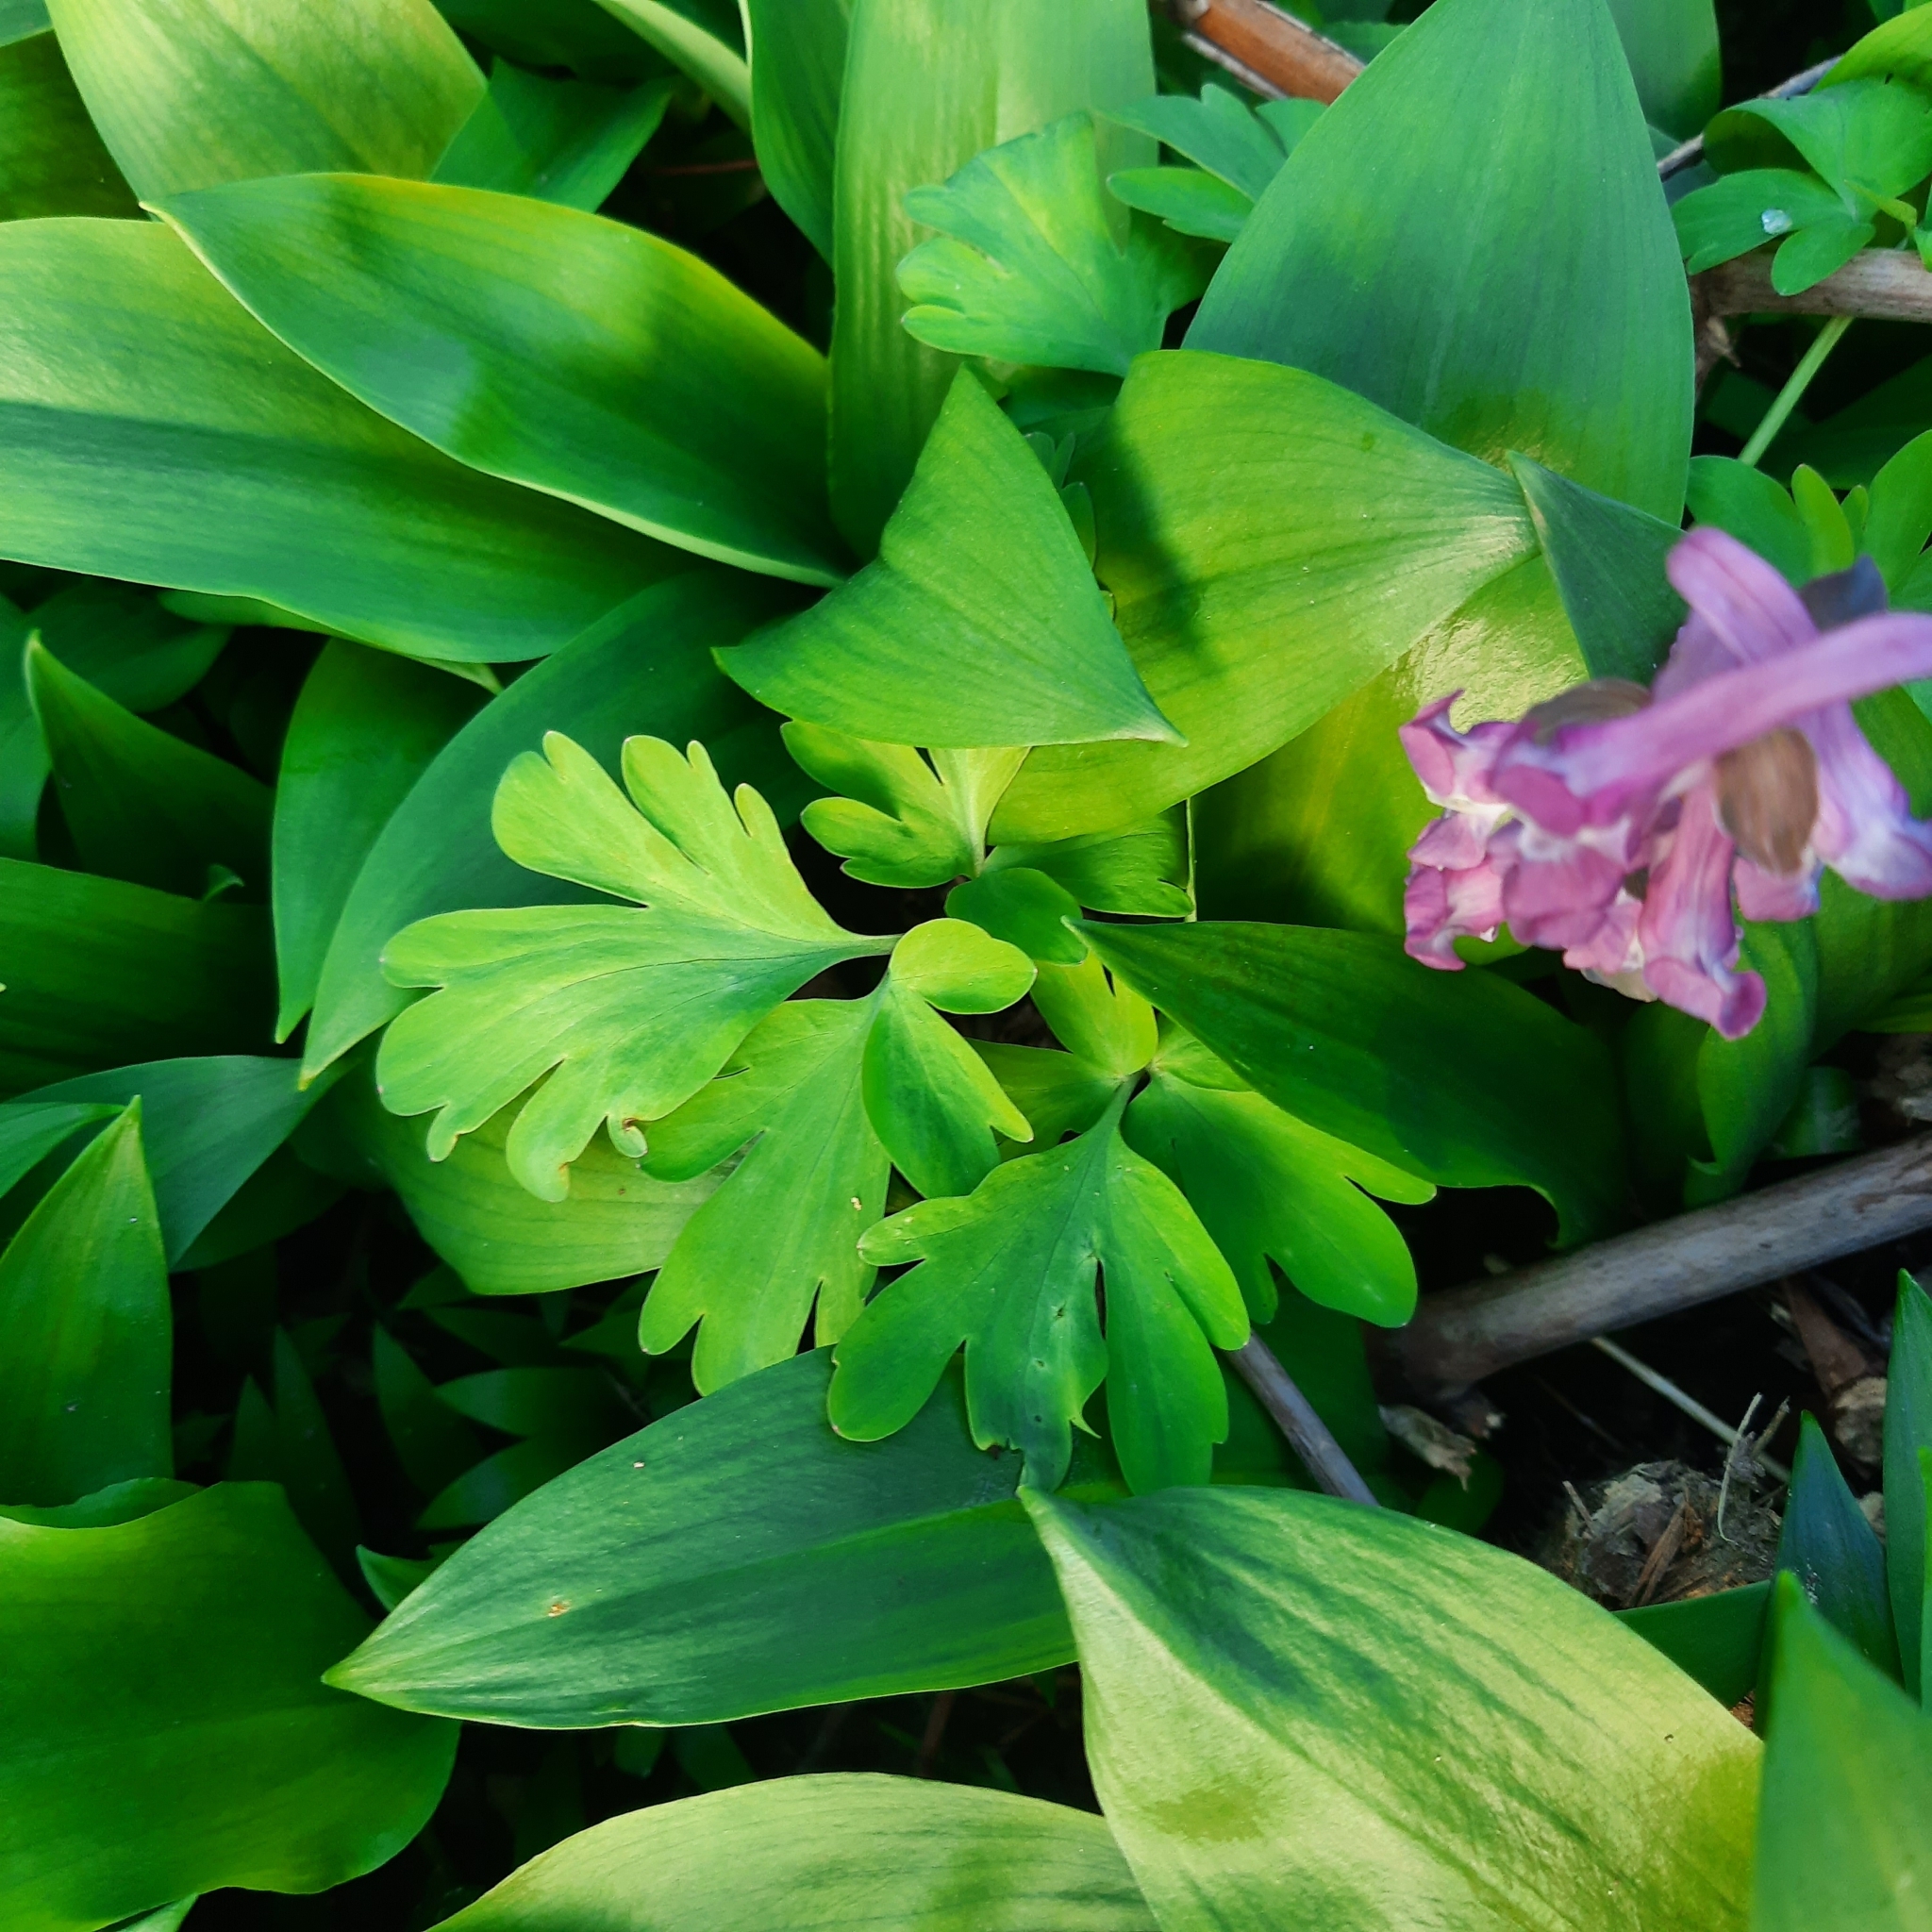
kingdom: Plantae
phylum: Tracheophyta
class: Magnoliopsida
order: Ranunculales
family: Papaveraceae
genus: Corydalis
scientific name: Corydalis cava
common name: Hollowroot
